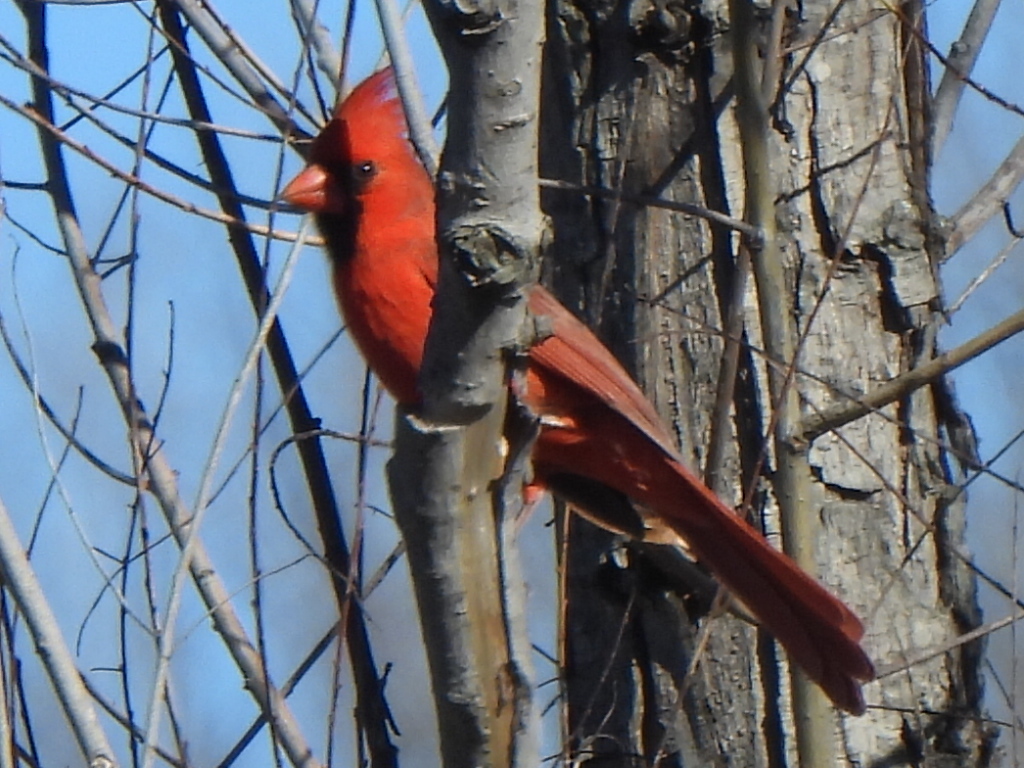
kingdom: Animalia
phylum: Chordata
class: Aves
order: Passeriformes
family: Cardinalidae
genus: Cardinalis
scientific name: Cardinalis cardinalis
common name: Northern cardinal
